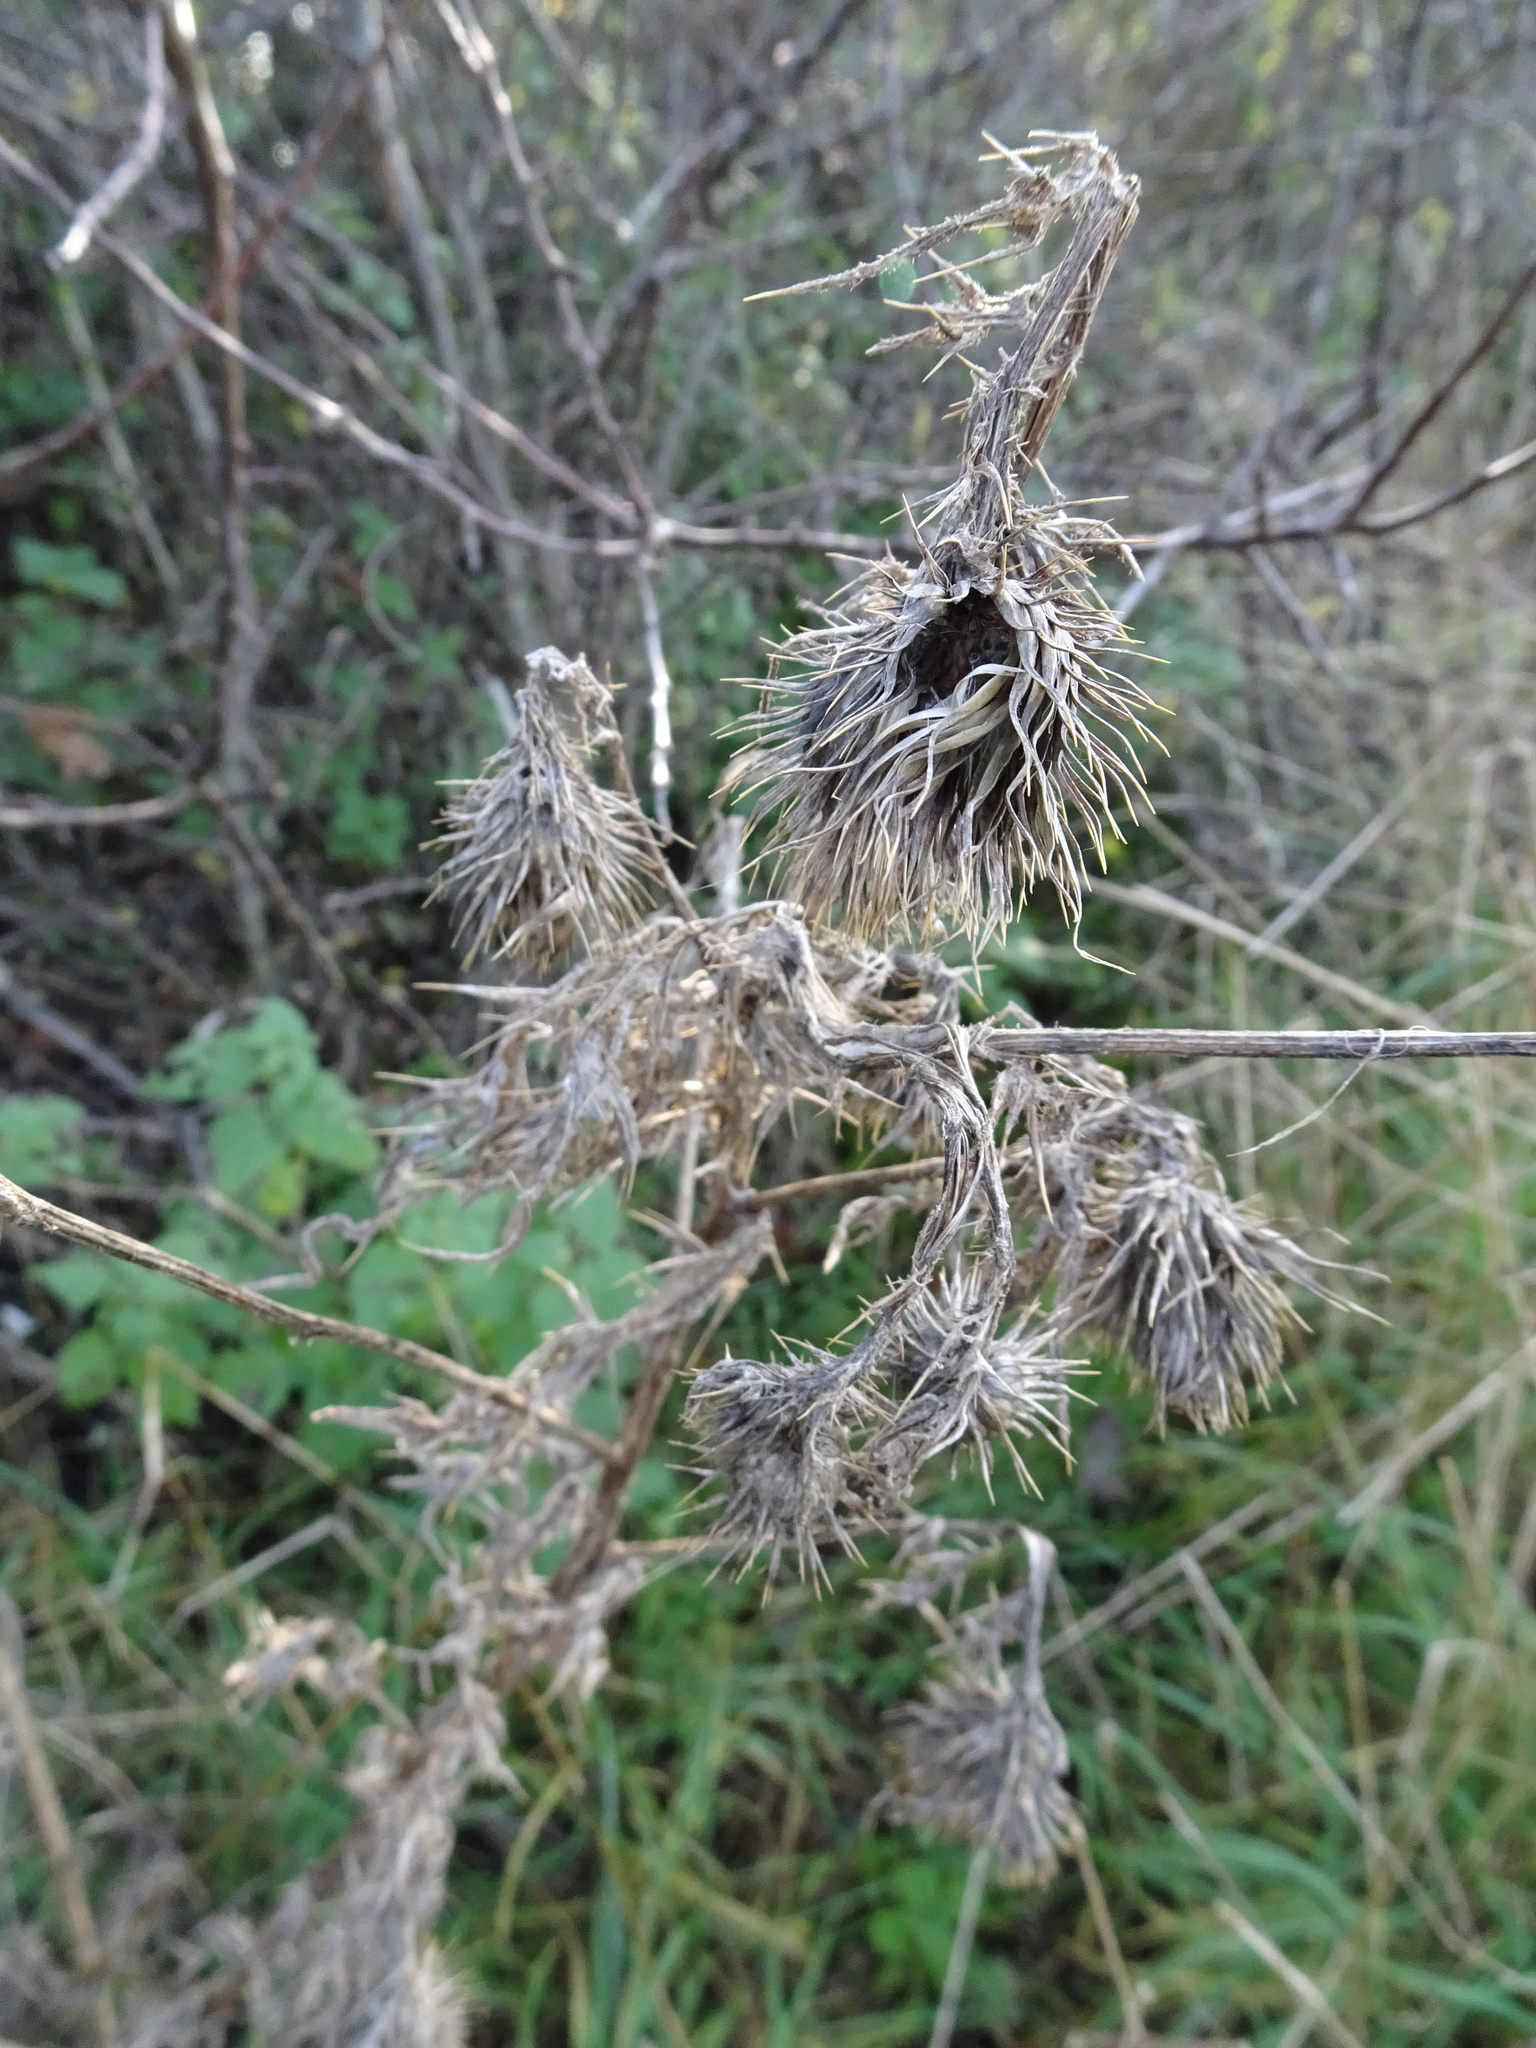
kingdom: Plantae
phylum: Tracheophyta
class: Magnoliopsida
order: Asterales
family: Asteraceae
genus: Cirsium
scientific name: Cirsium vulgare
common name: Bull thistle
